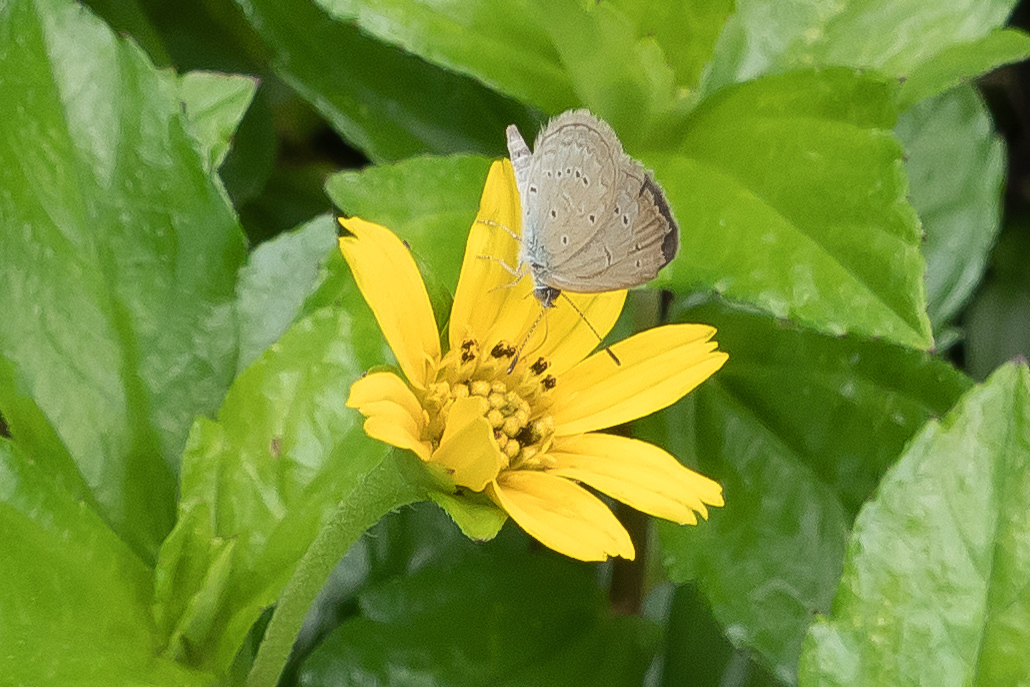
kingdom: Animalia
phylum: Arthropoda
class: Insecta
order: Lepidoptera
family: Lycaenidae
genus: Zizina
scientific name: Zizina otis
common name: Lesser grass blue
